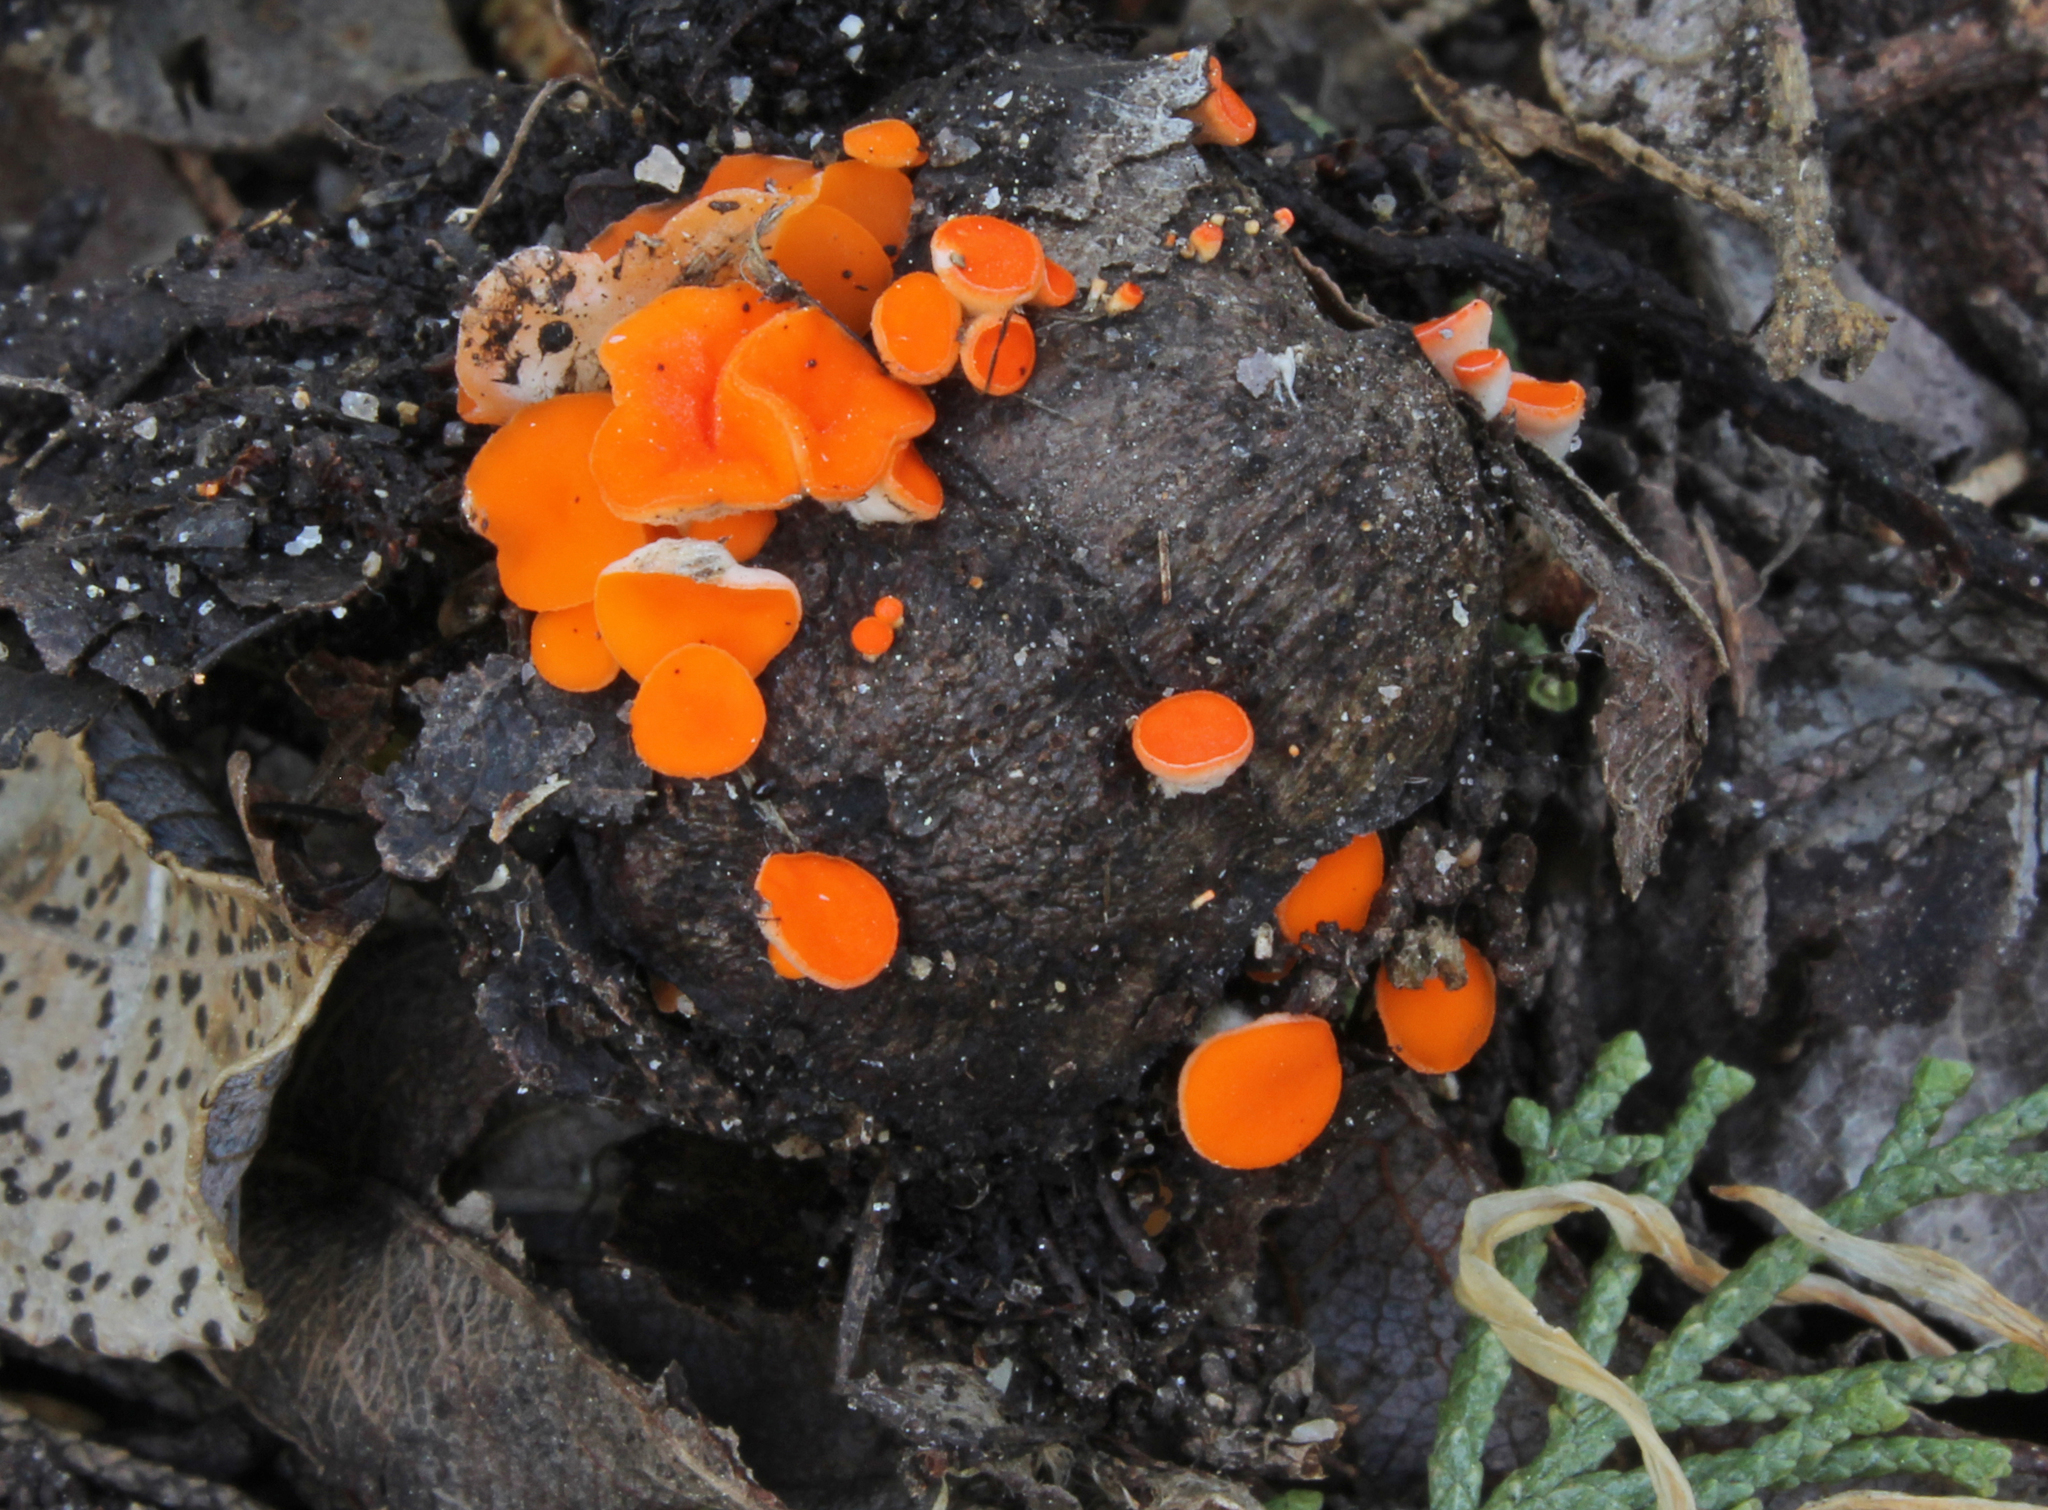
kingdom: Fungi
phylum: Ascomycota
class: Pezizomycetes
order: Pezizales
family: Sarcoscyphaceae
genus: Pseudopithyella
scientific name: Pseudopithyella minuscula
